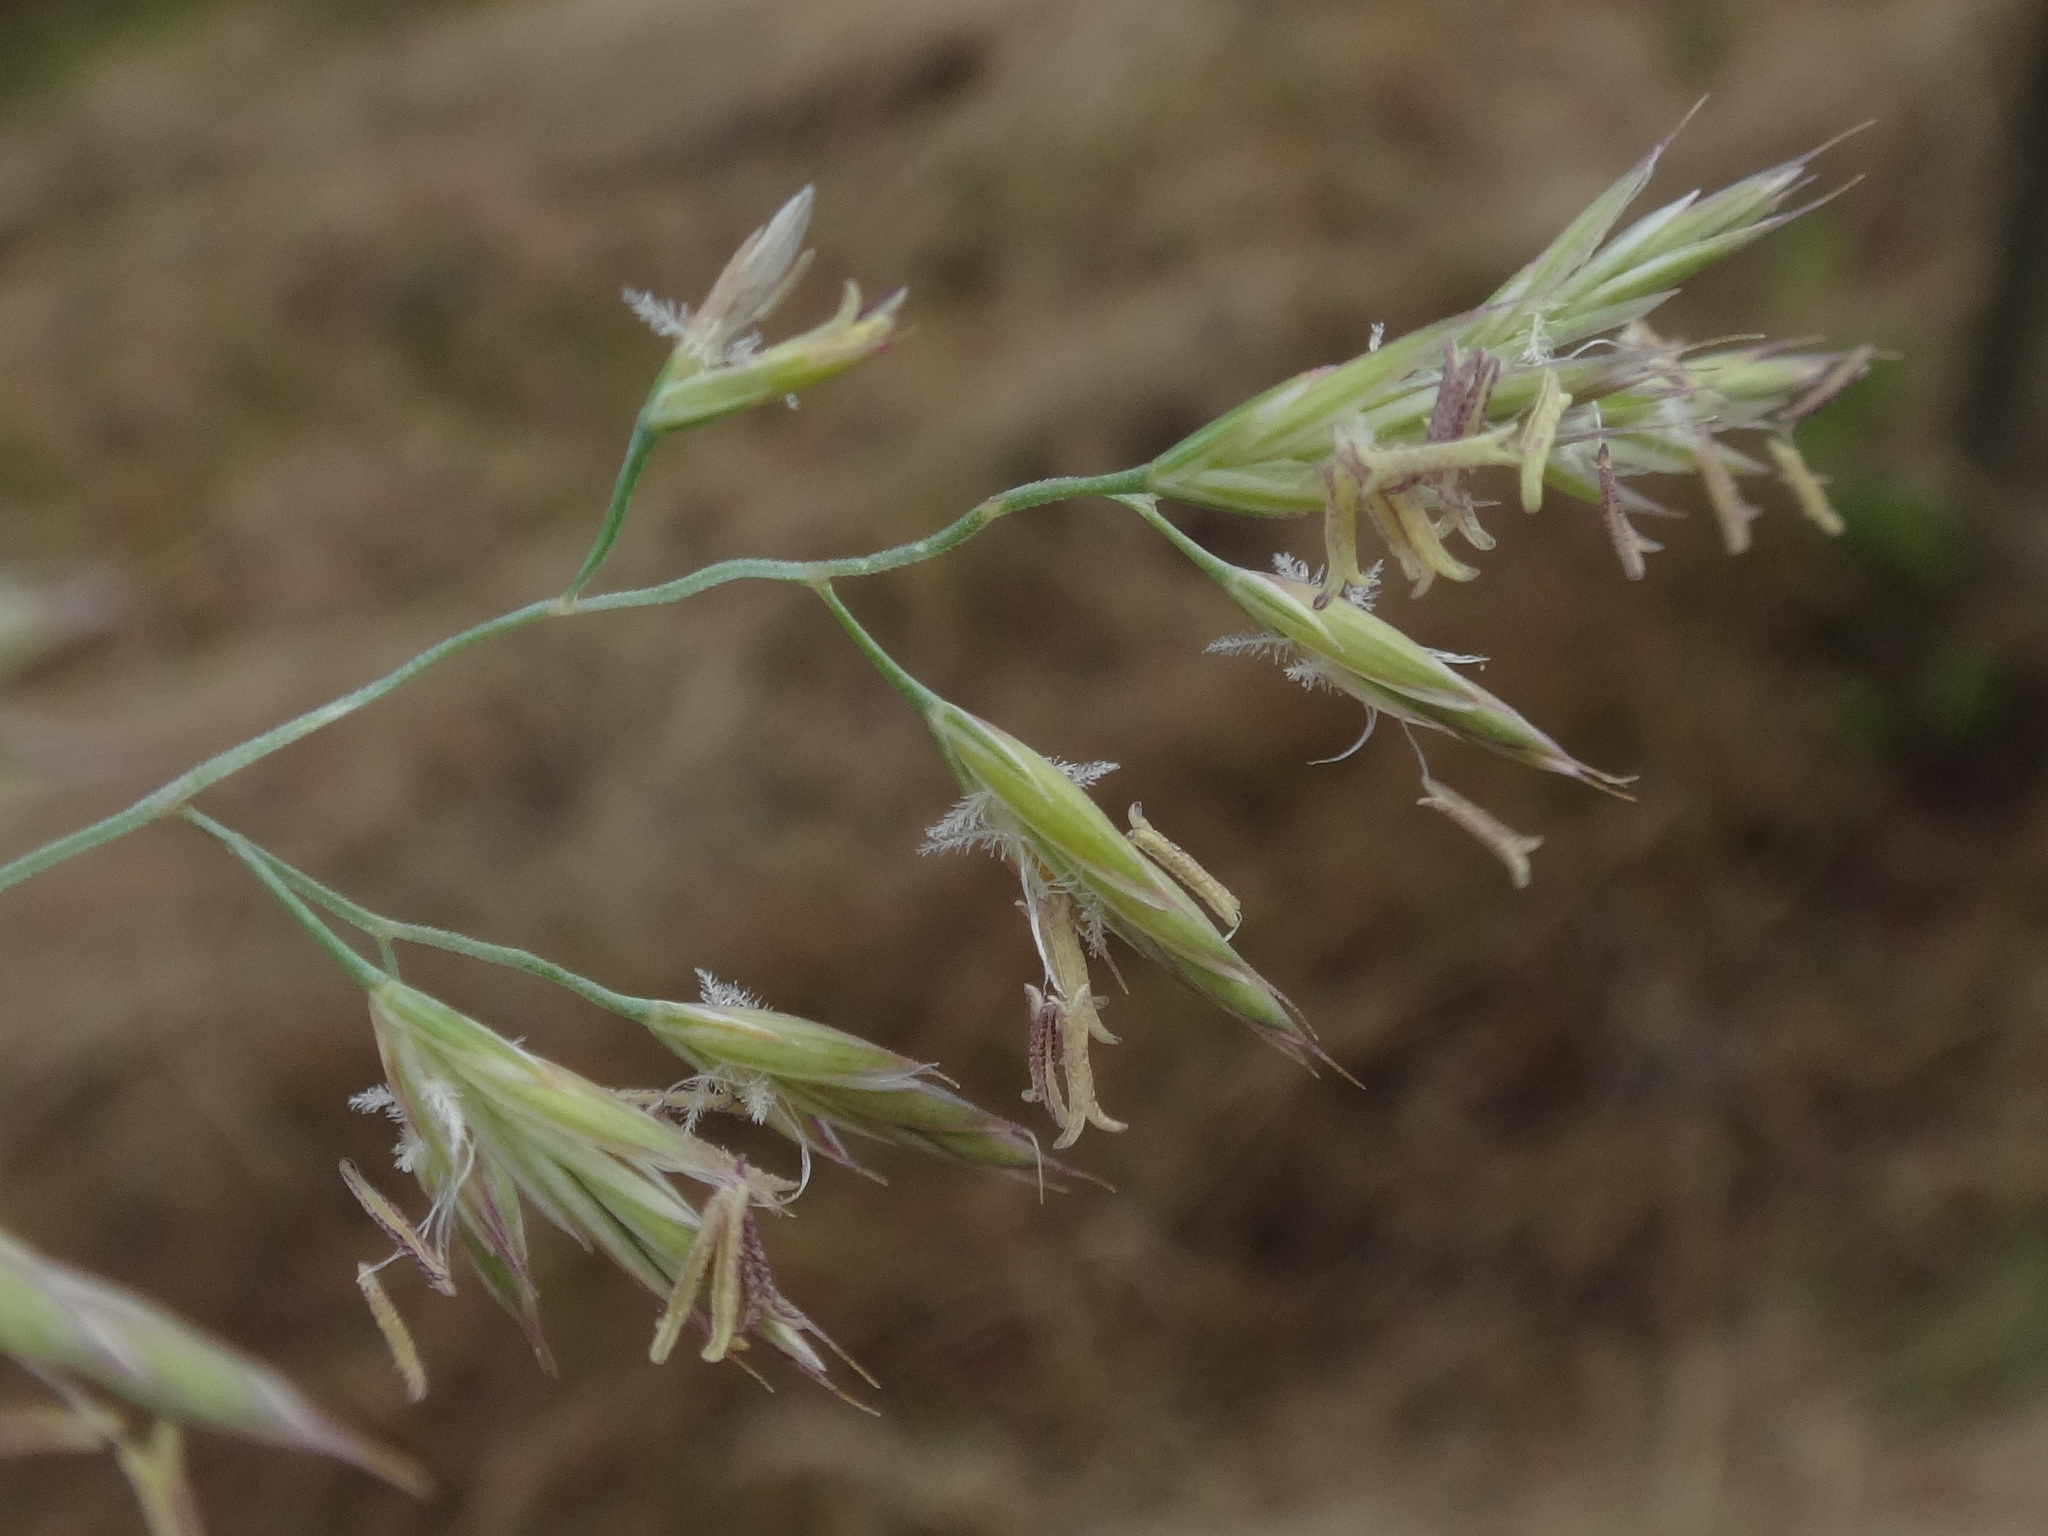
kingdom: Plantae
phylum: Tracheophyta
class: Liliopsida
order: Poales
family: Poaceae
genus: Festuca
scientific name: Festuca rubra
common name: Red fescue
